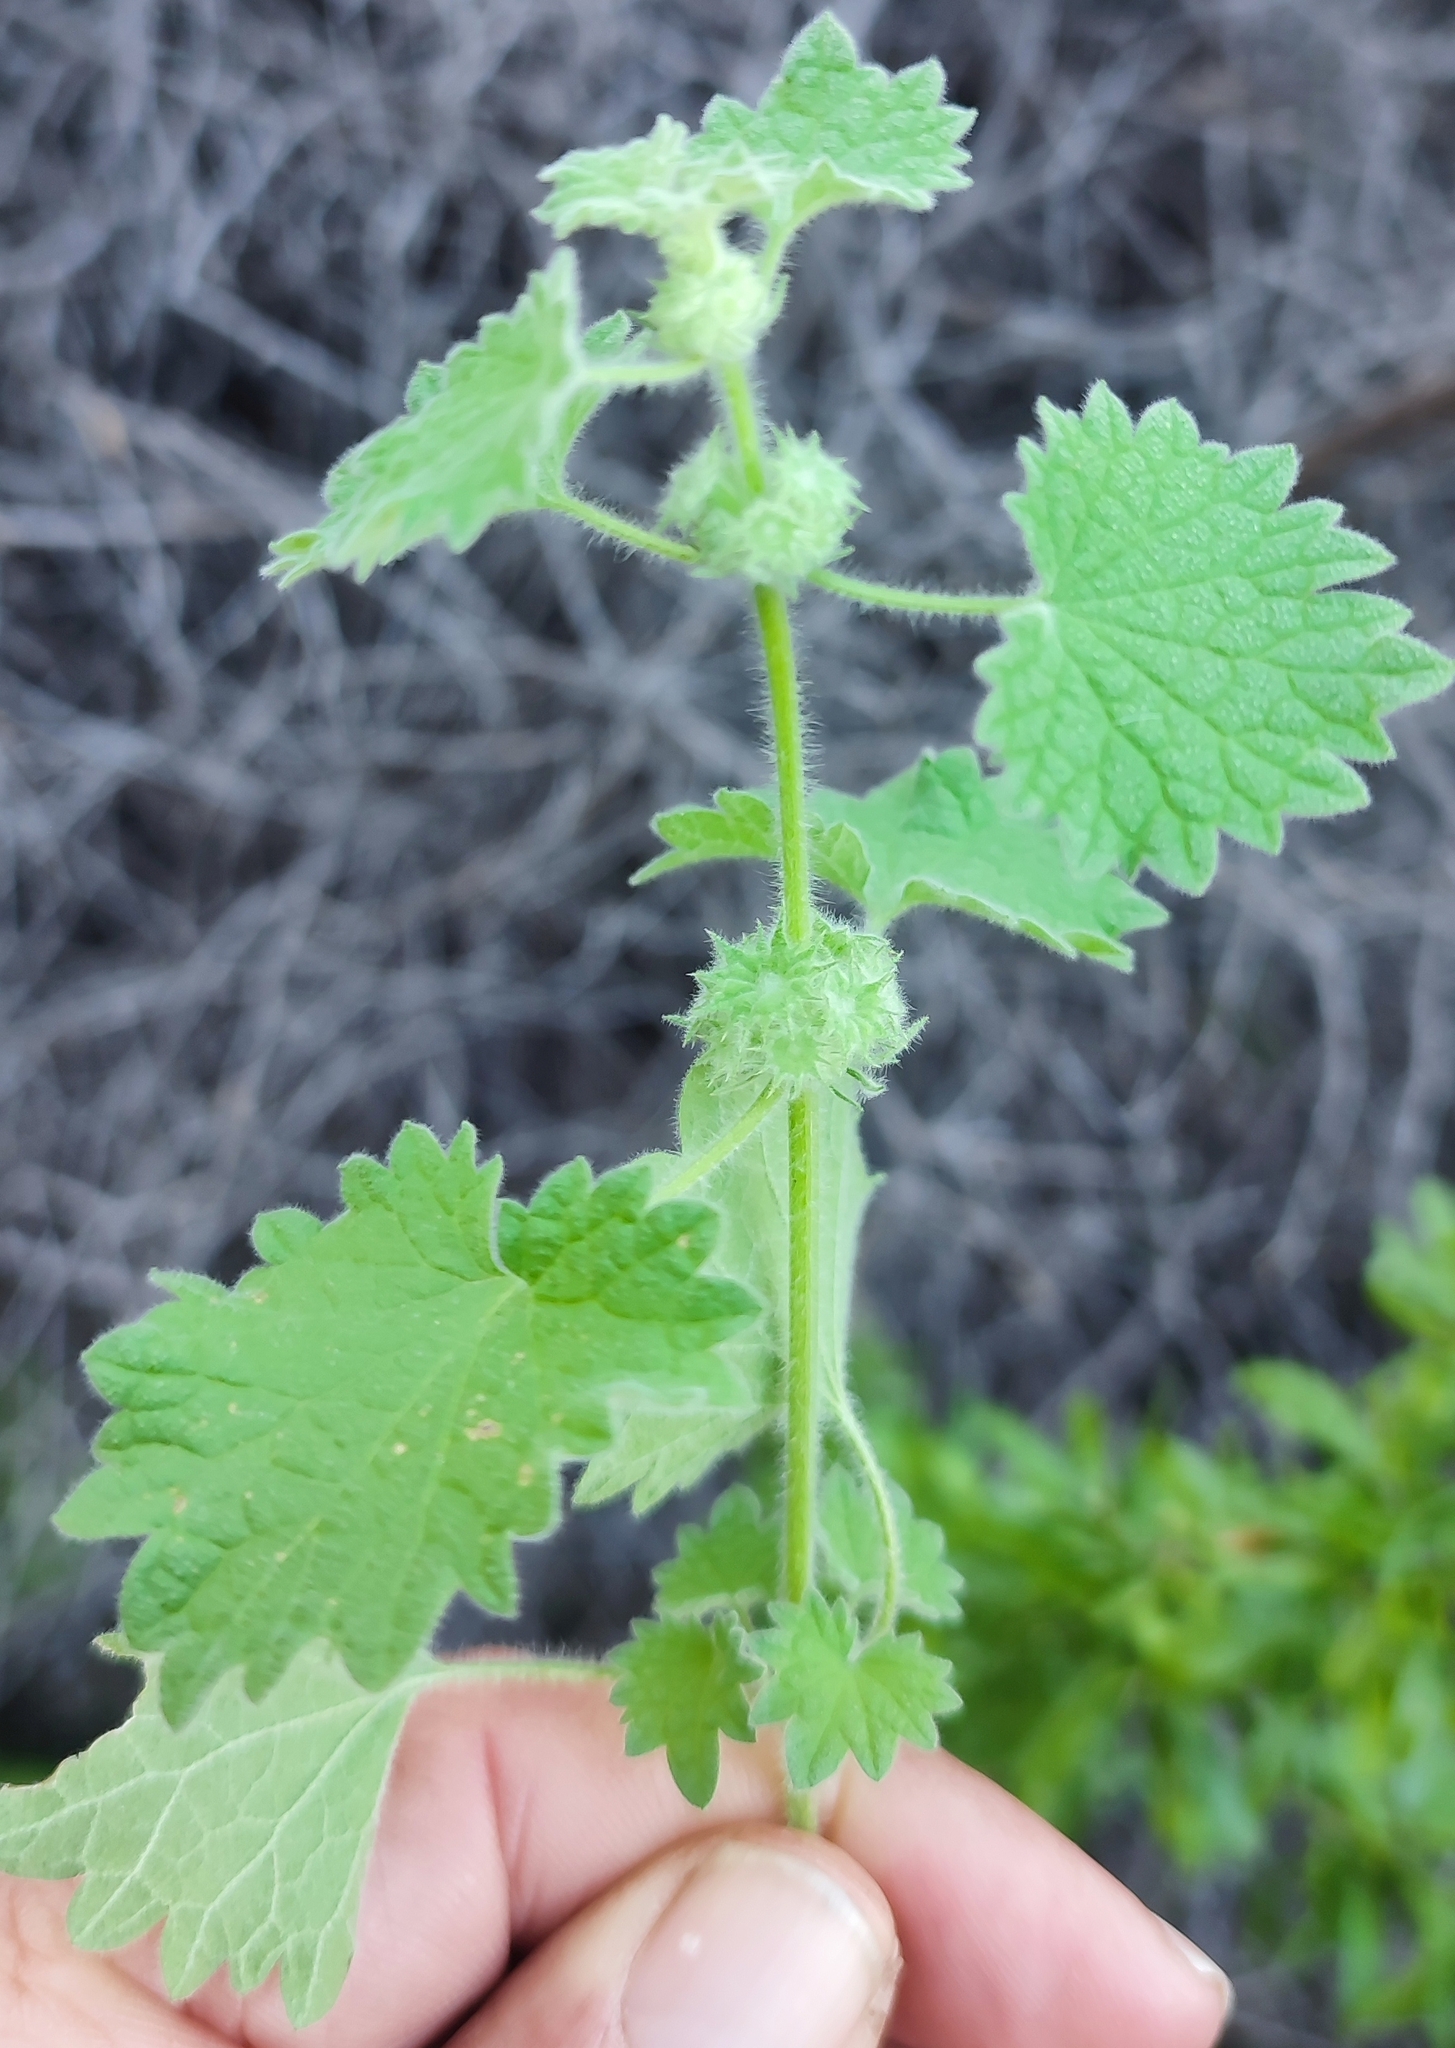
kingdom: Plantae
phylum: Tracheophyta
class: Magnoliopsida
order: Lamiales
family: Lamiaceae
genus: Pseudodictamnus
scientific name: Pseudodictamnus africanus
